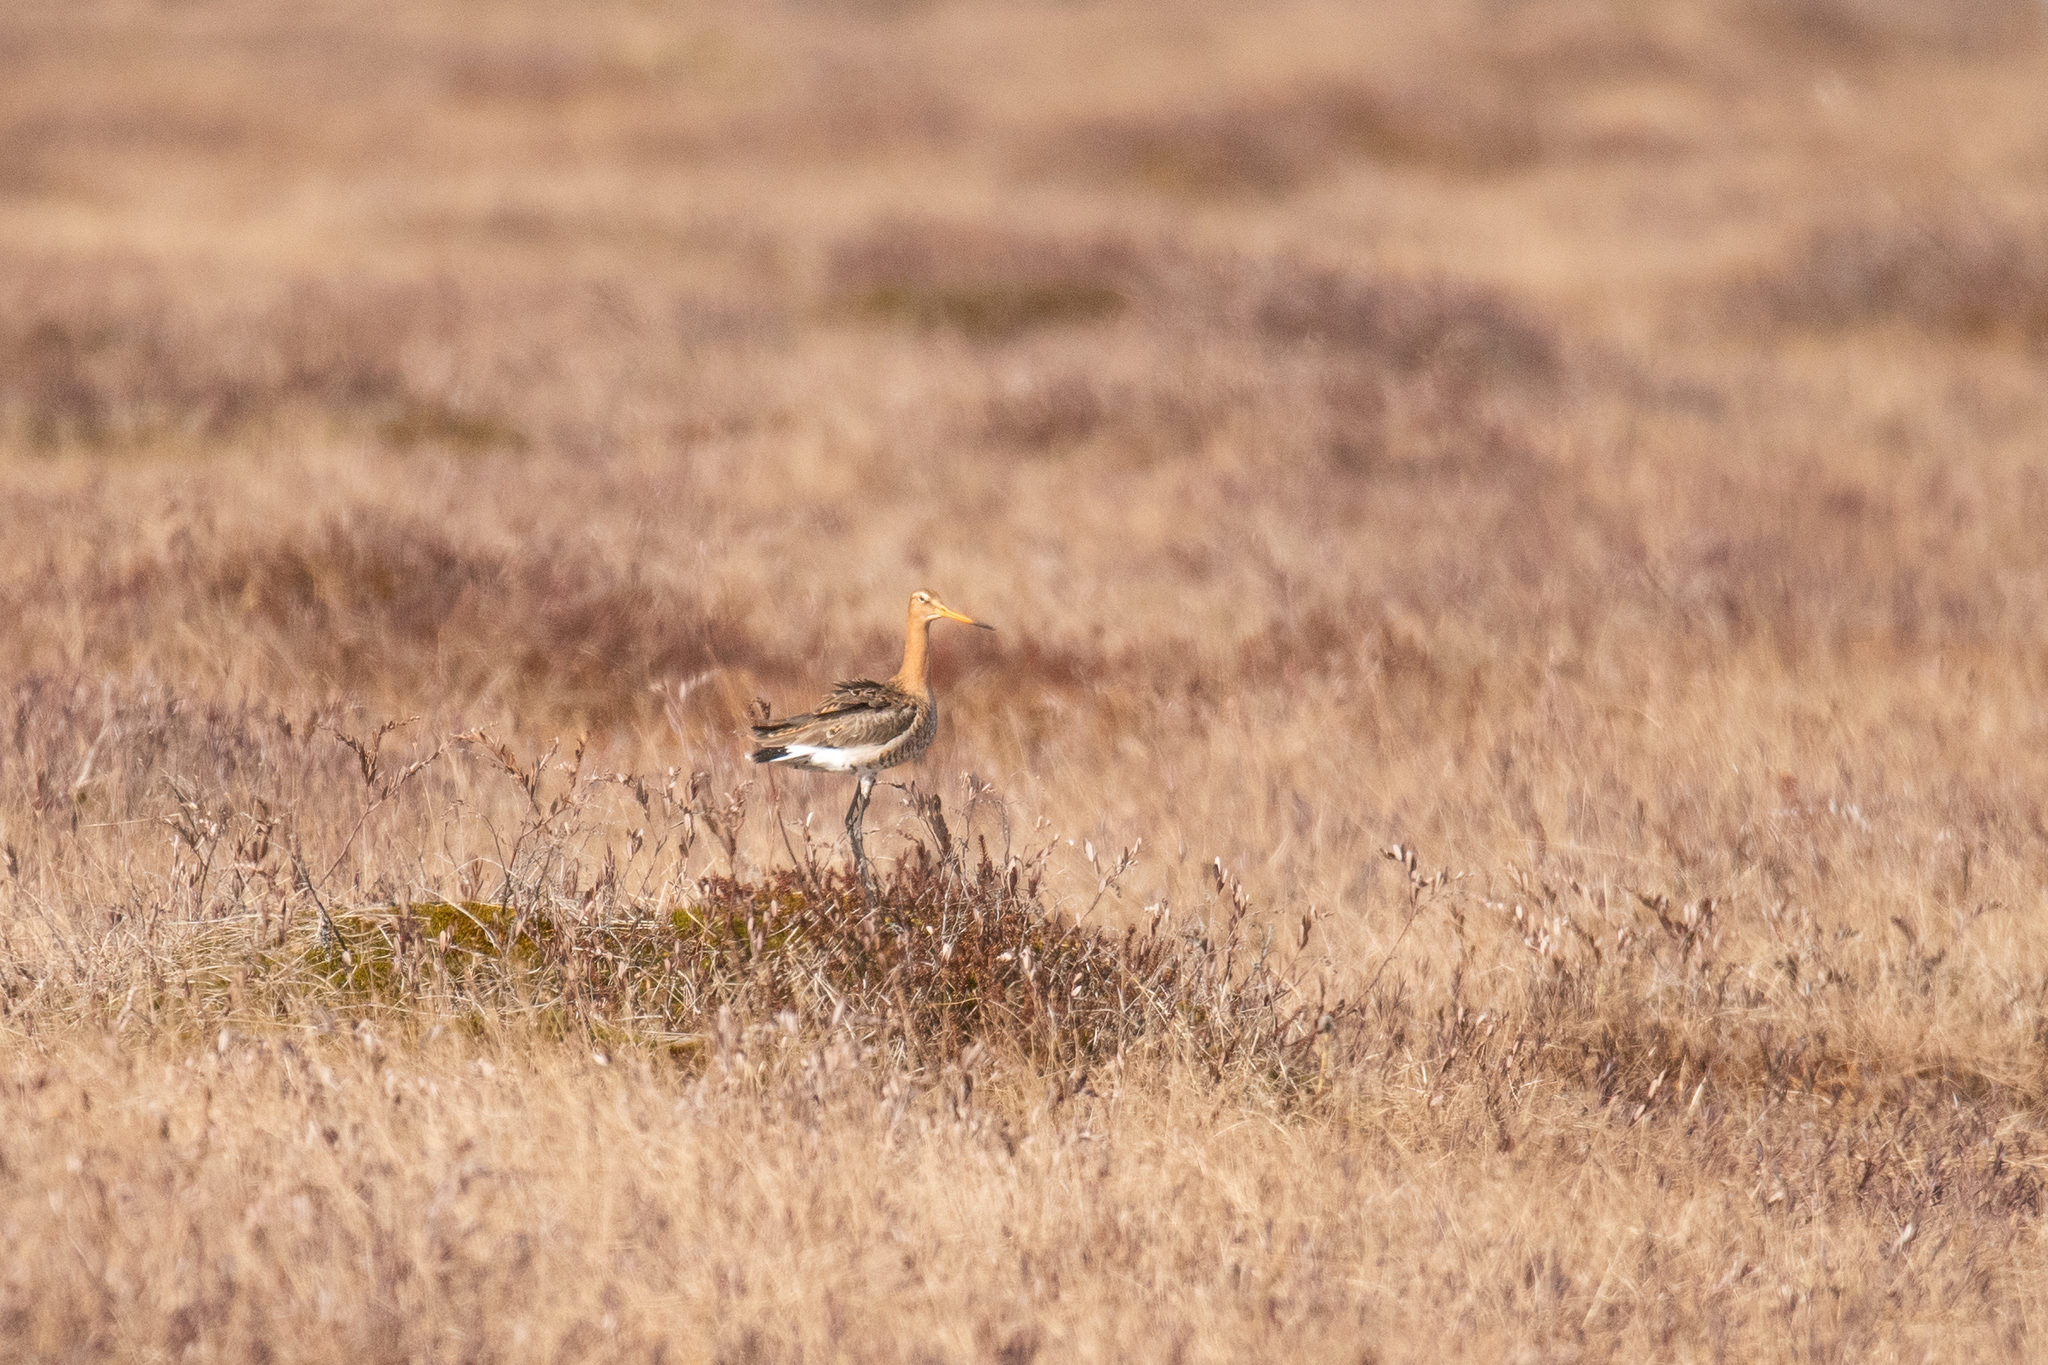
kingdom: Animalia
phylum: Chordata
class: Aves
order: Charadriiformes
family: Scolopacidae
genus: Limosa
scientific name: Limosa limosa
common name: Black-tailed godwit
